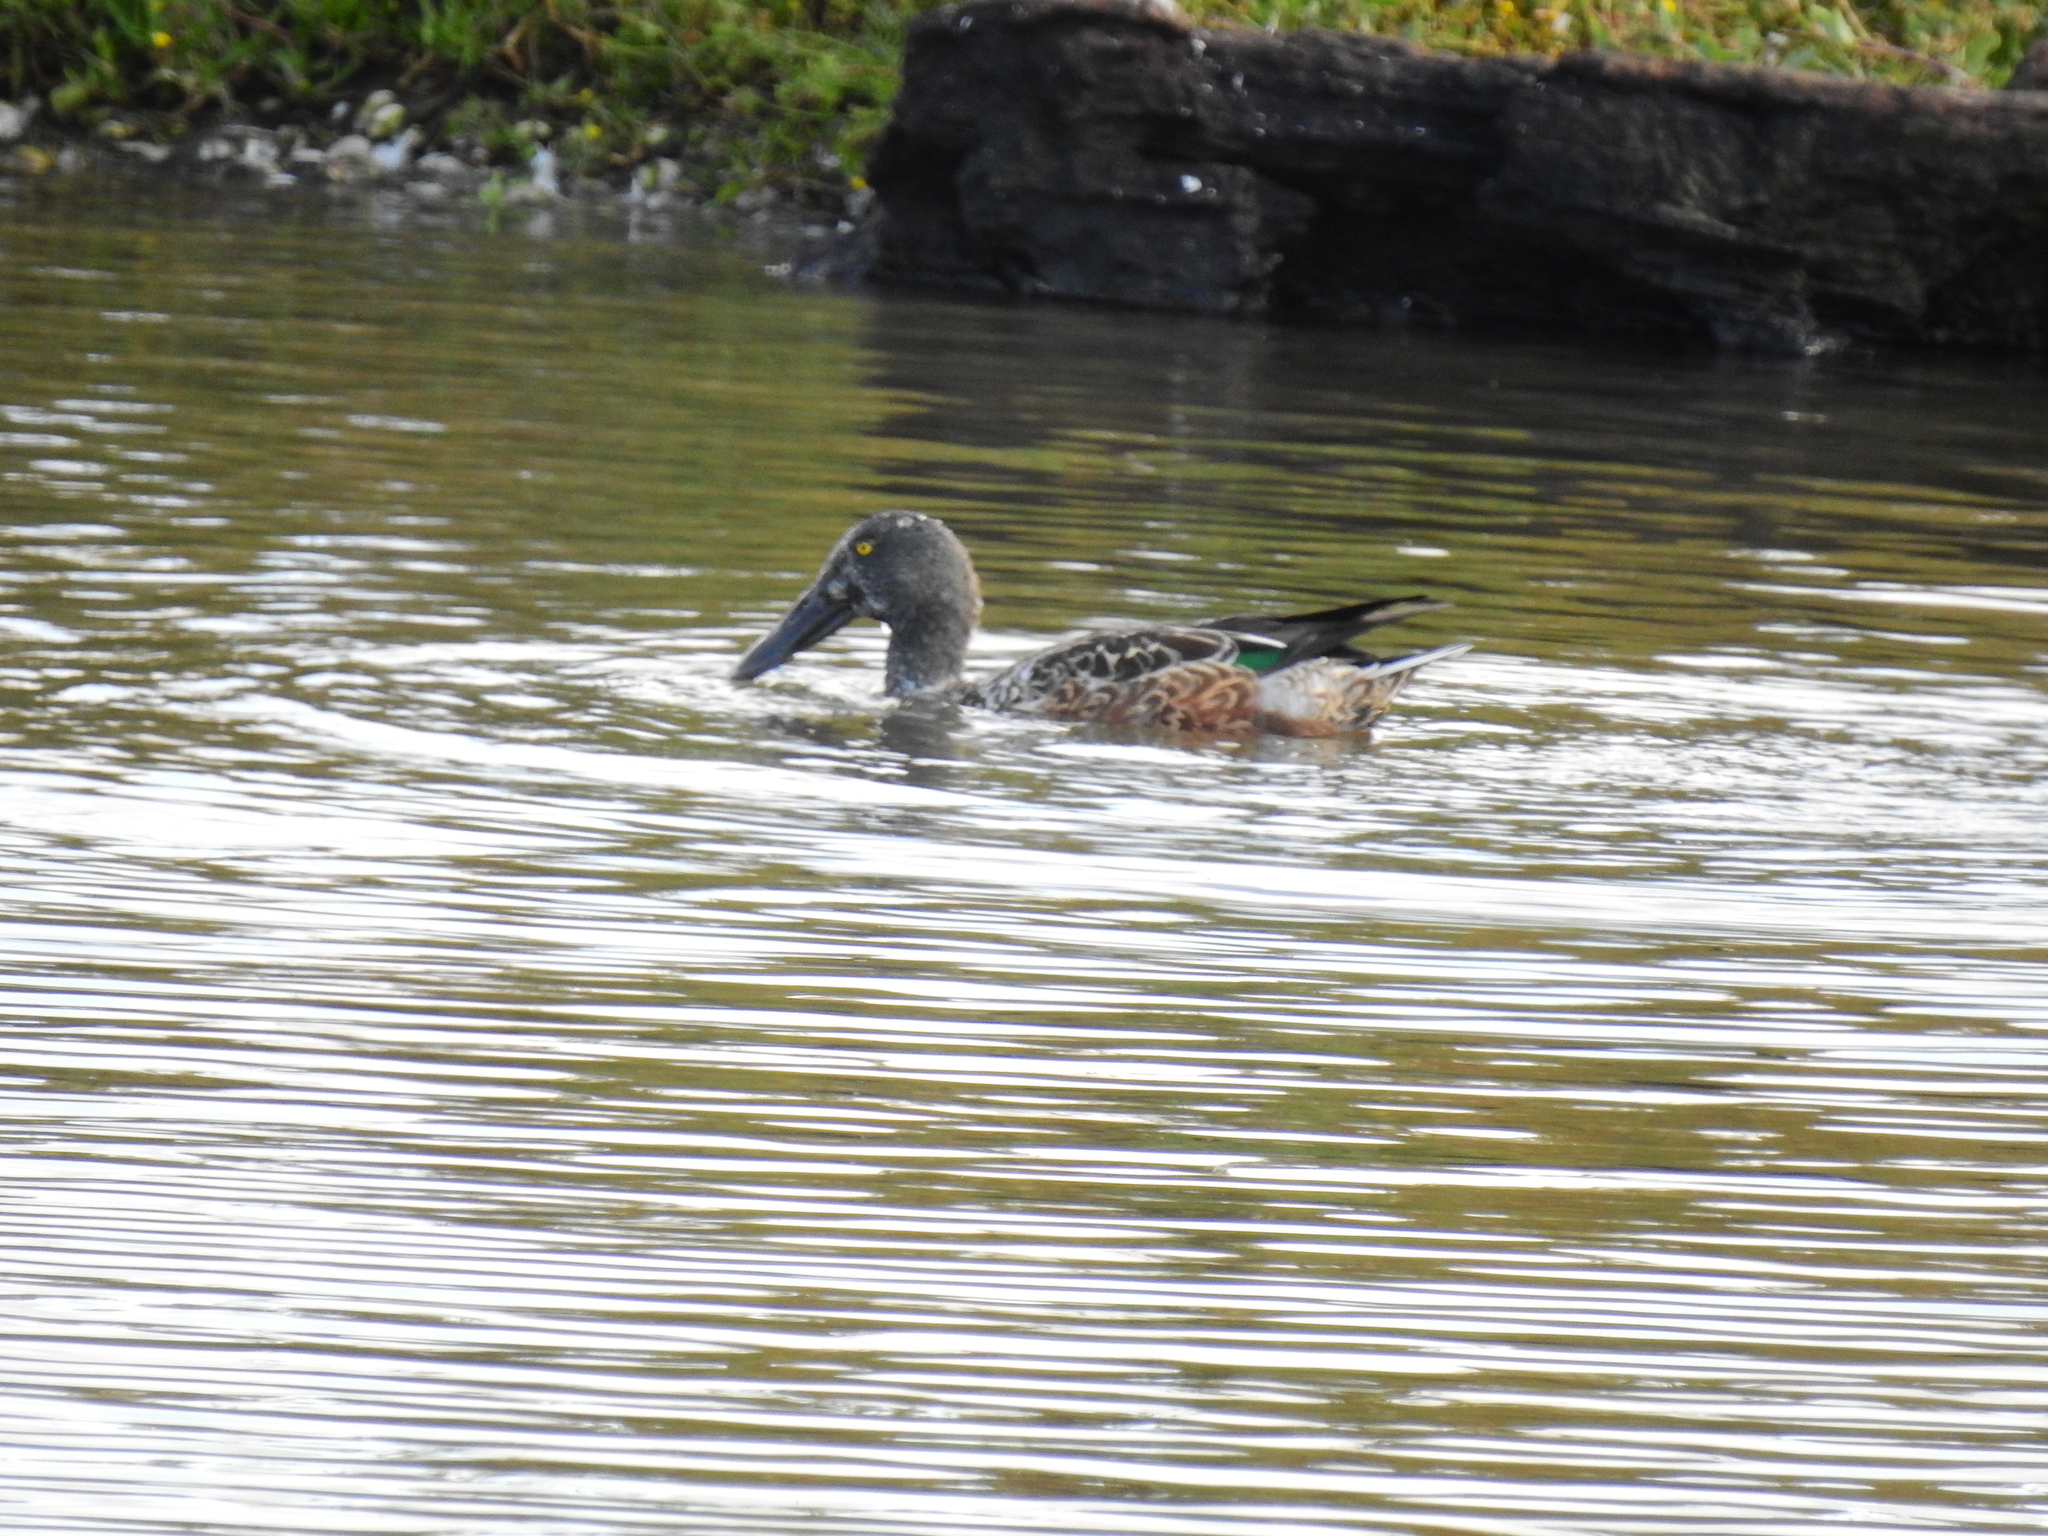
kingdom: Animalia
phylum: Chordata
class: Aves
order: Anseriformes
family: Anatidae
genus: Spatula
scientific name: Spatula clypeata
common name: Northern shoveler
